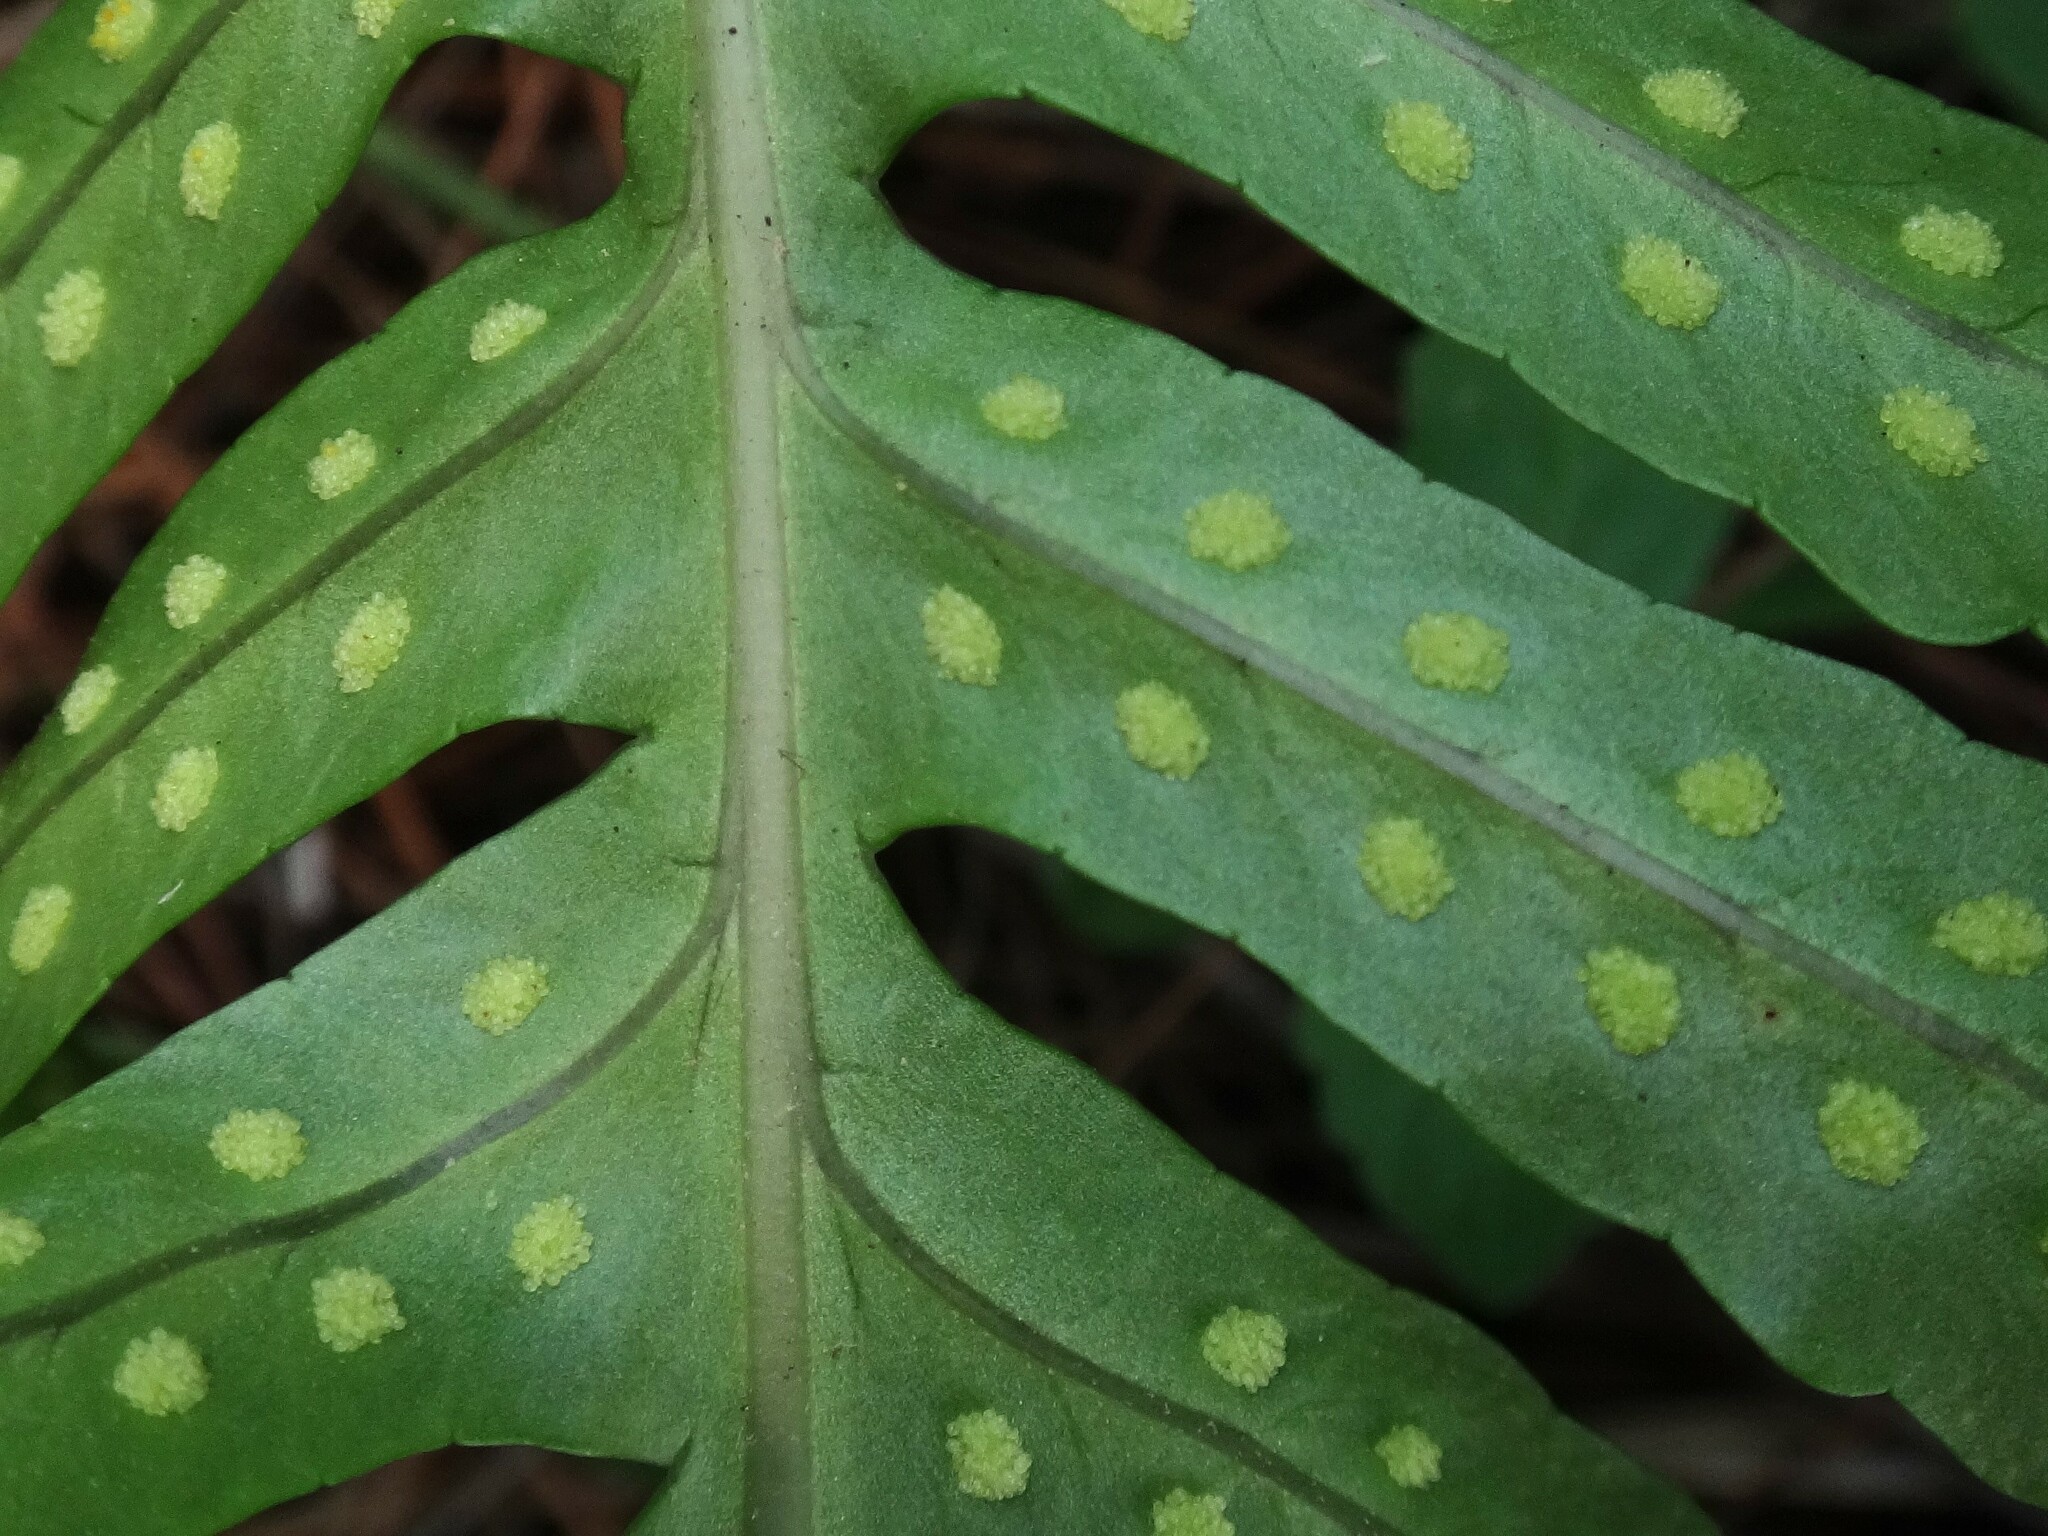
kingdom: Plantae
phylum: Tracheophyta
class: Polypodiopsida
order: Polypodiales
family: Polypodiaceae
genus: Polypodium
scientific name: Polypodium macaronesicum
